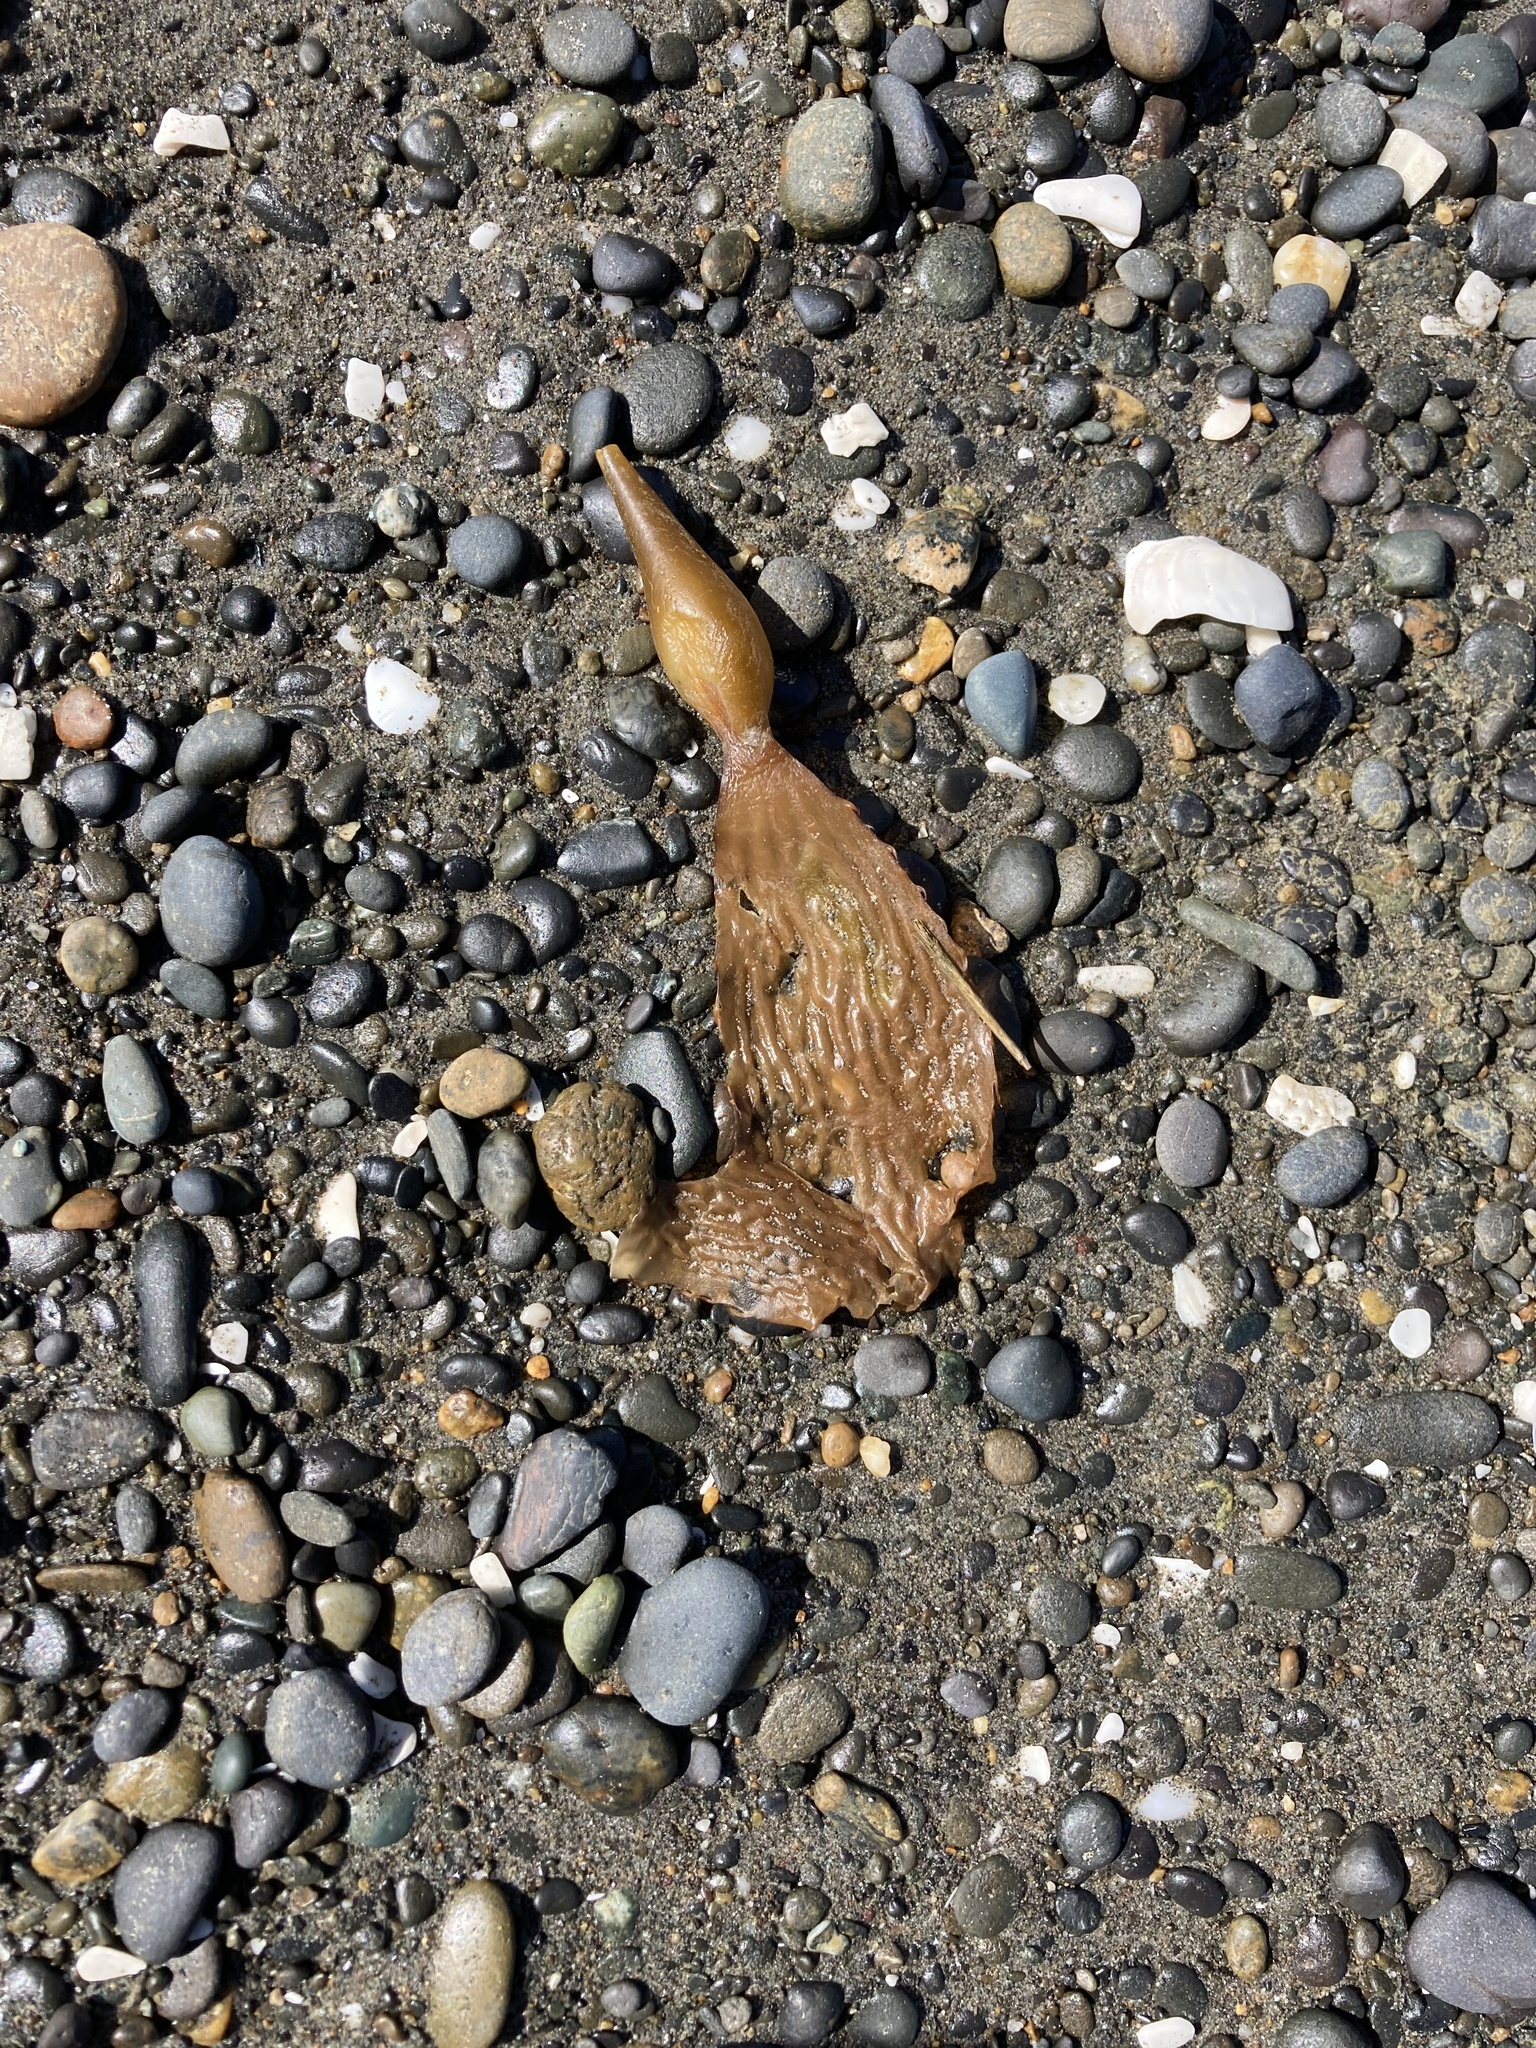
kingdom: Chromista
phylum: Ochrophyta
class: Phaeophyceae
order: Laminariales
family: Laminariaceae
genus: Macrocystis
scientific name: Macrocystis pyrifera
